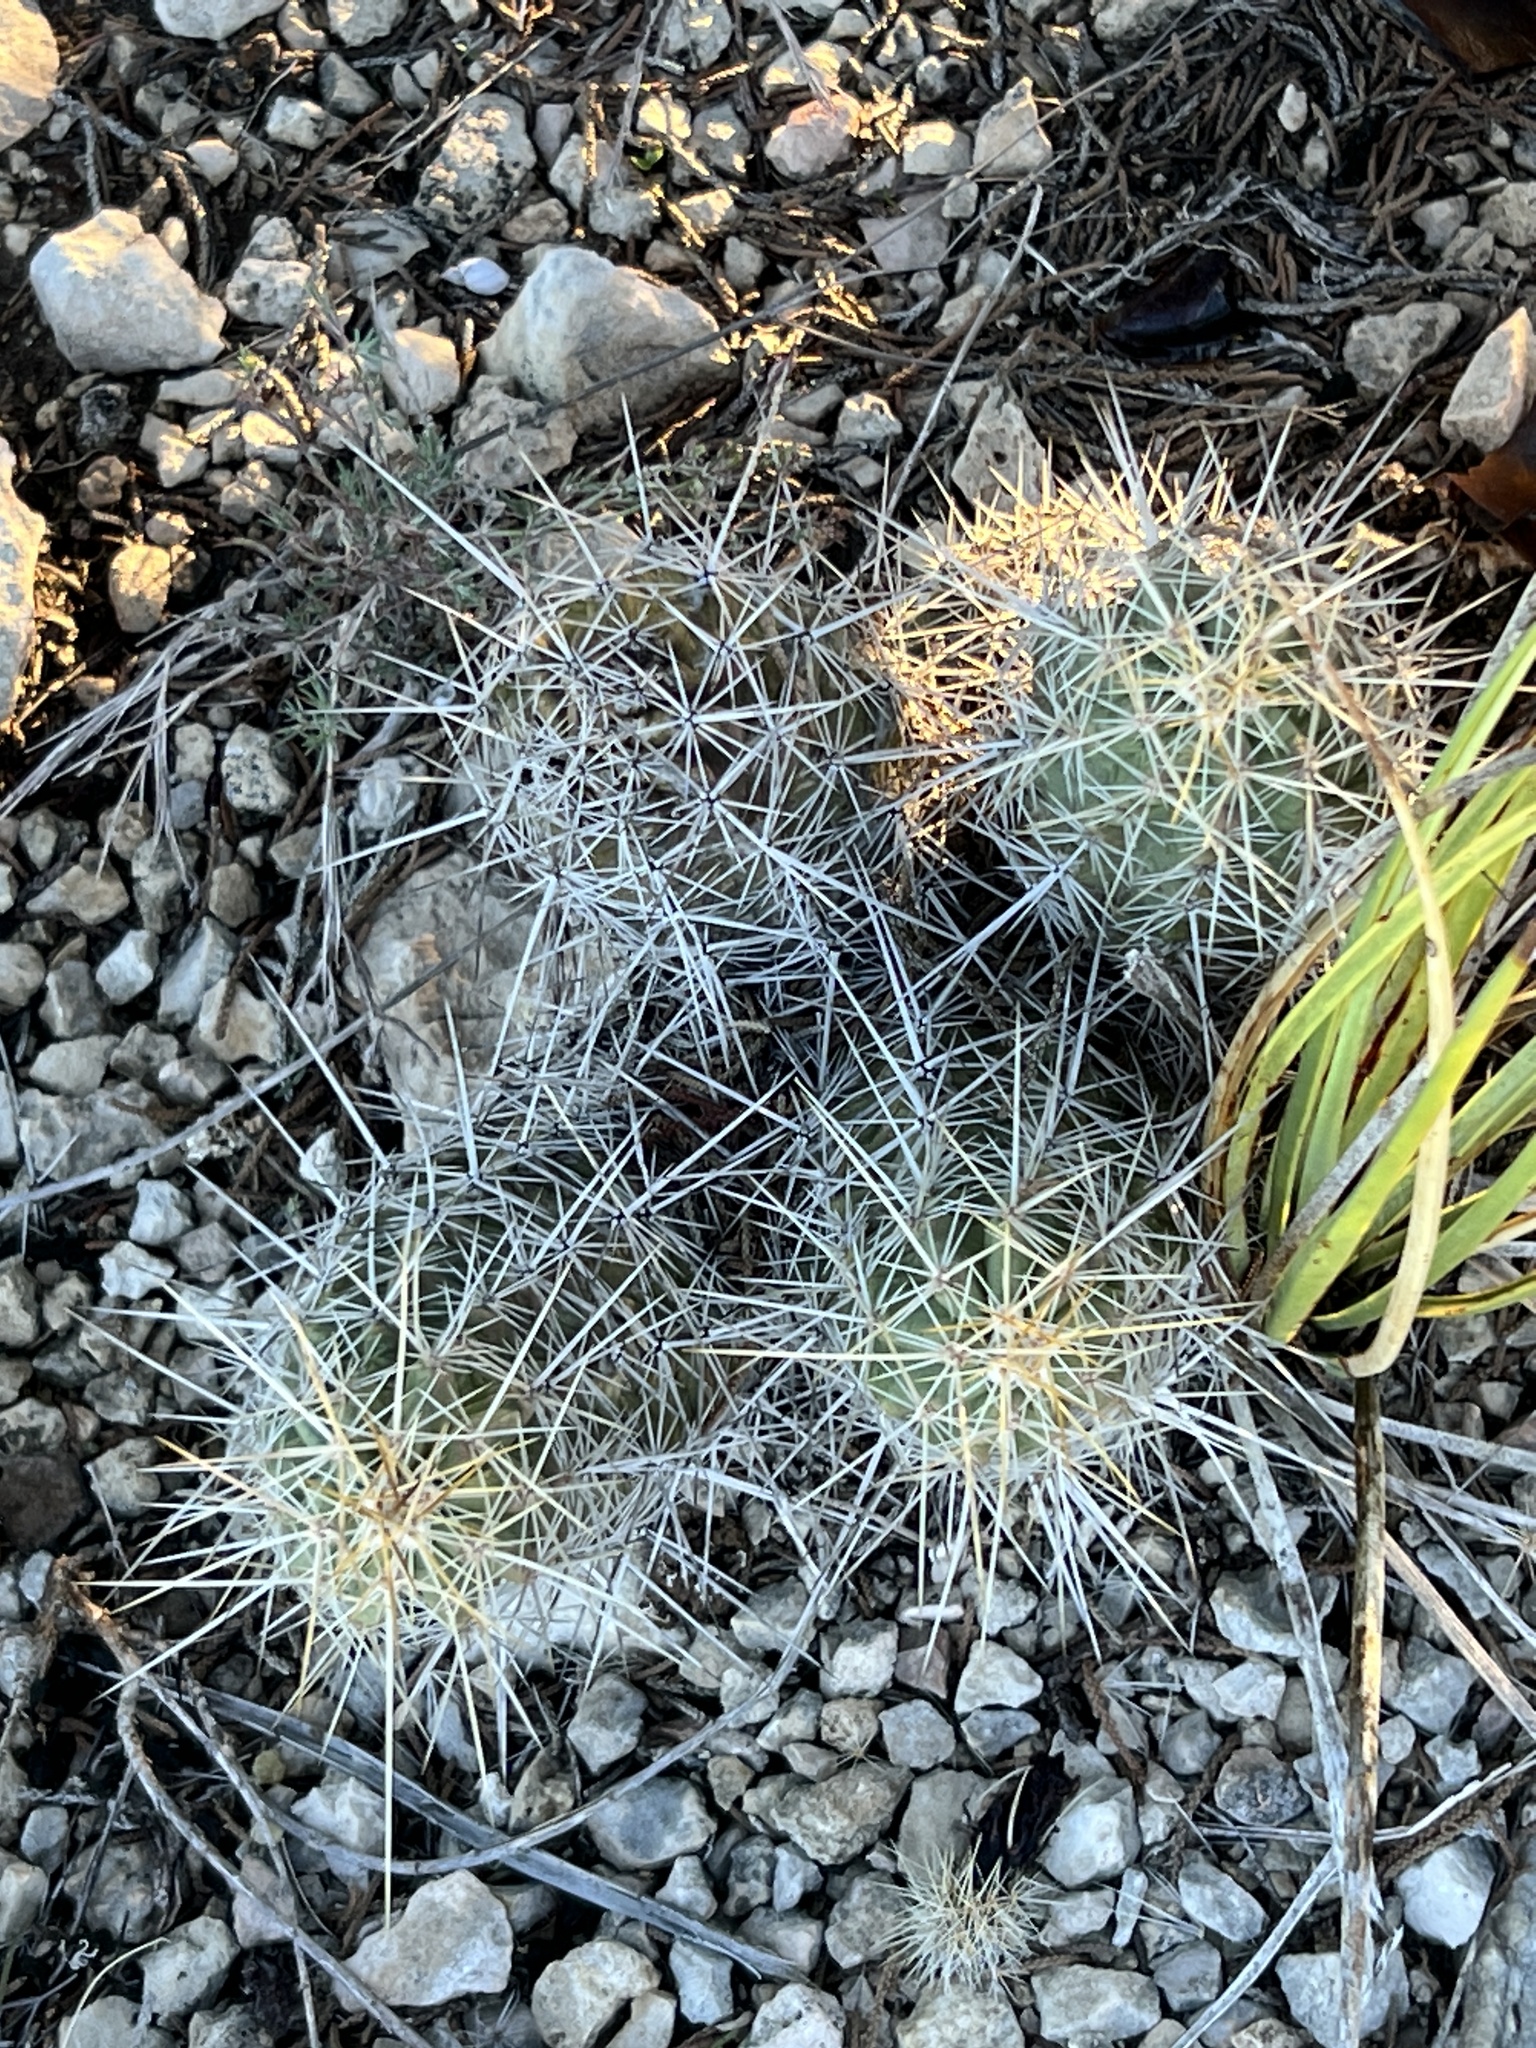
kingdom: Plantae
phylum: Tracheophyta
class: Magnoliopsida
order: Caryophyllales
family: Cactaceae
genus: Echinocereus
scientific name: Echinocereus enneacanthus
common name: Pitaya
